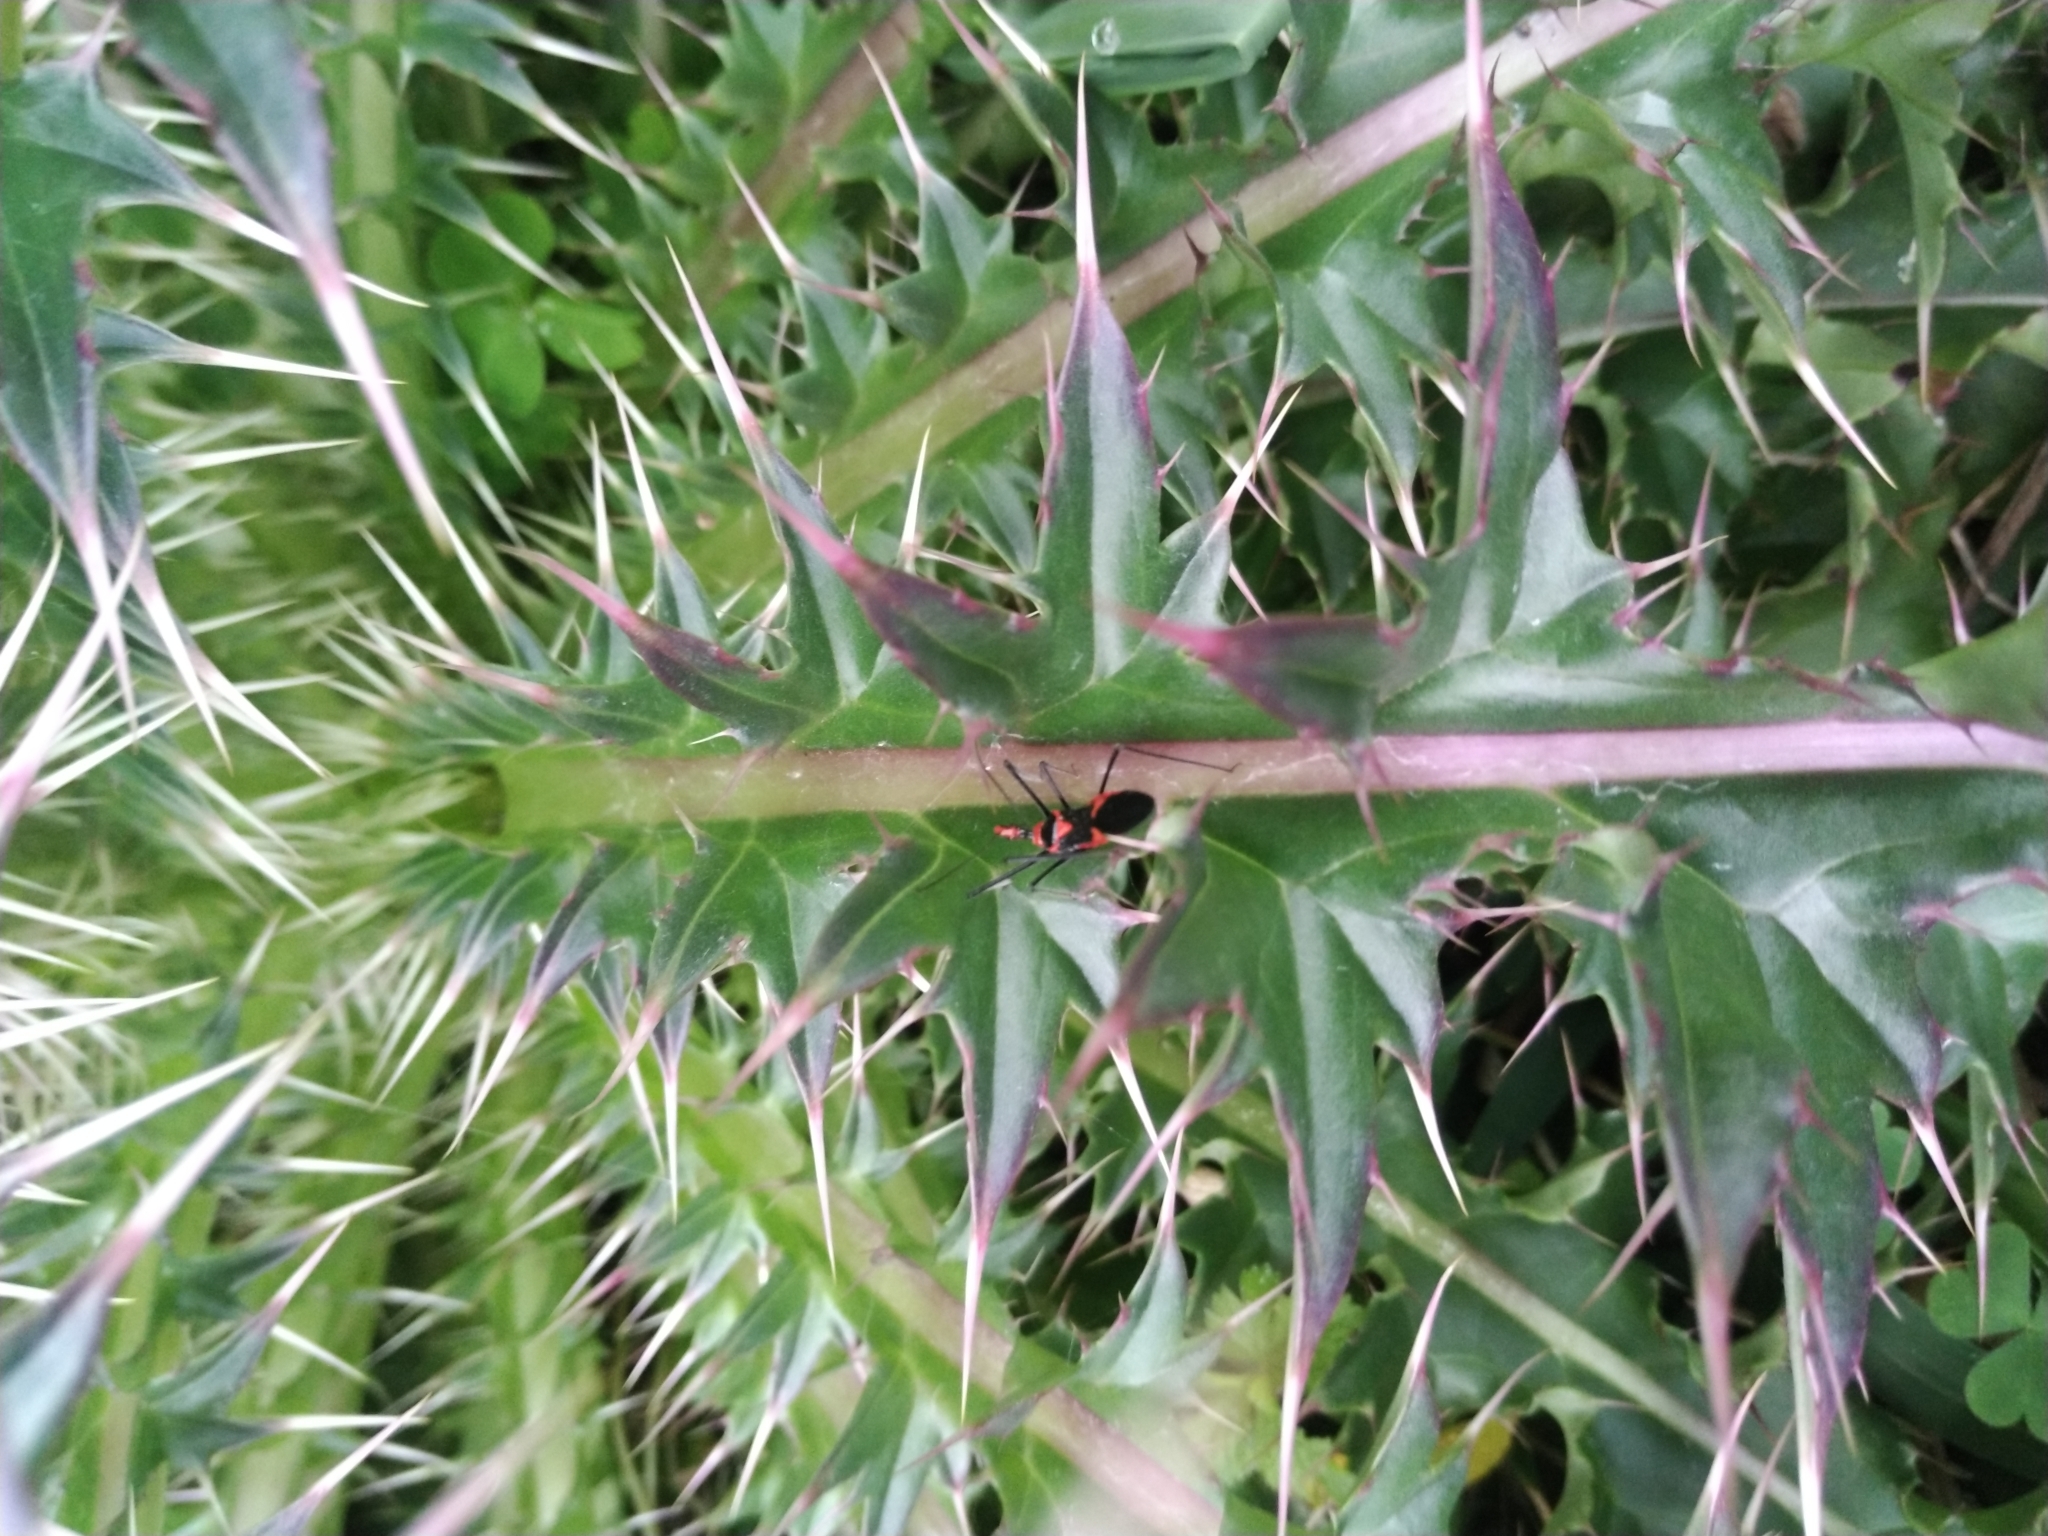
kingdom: Animalia
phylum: Arthropoda
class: Insecta
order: Hemiptera
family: Reduviidae
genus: Zelus
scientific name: Zelus longipes
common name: Milkweed assassin bug
